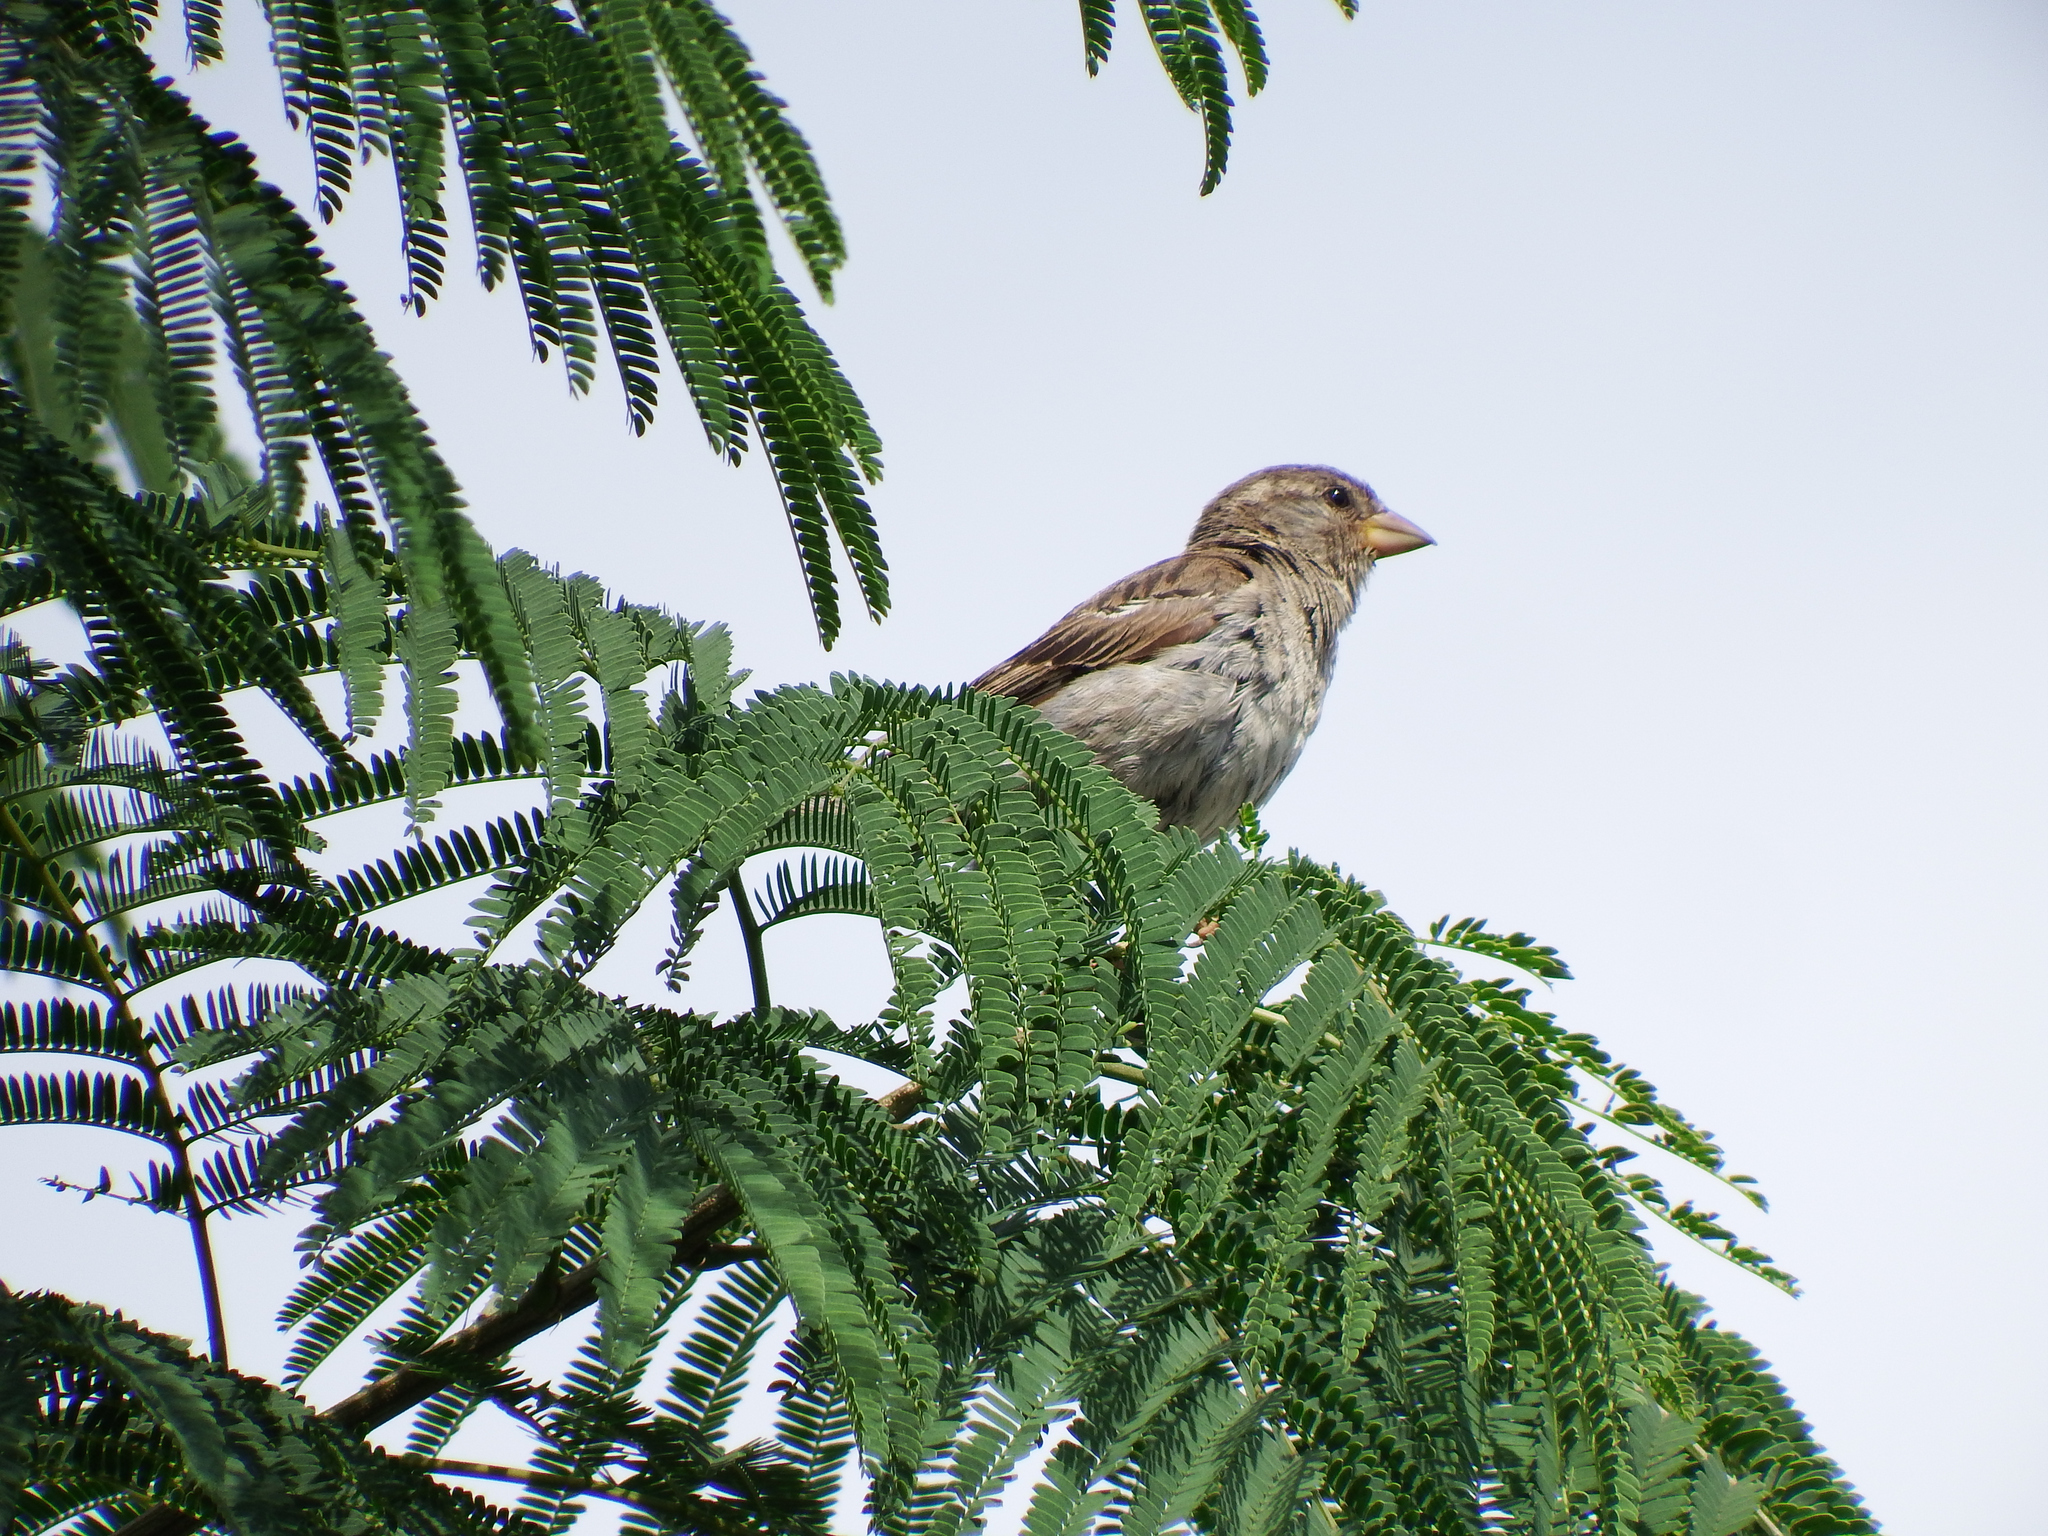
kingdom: Animalia
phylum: Chordata
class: Aves
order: Passeriformes
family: Passeridae
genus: Passer
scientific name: Passer domesticus
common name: House sparrow
